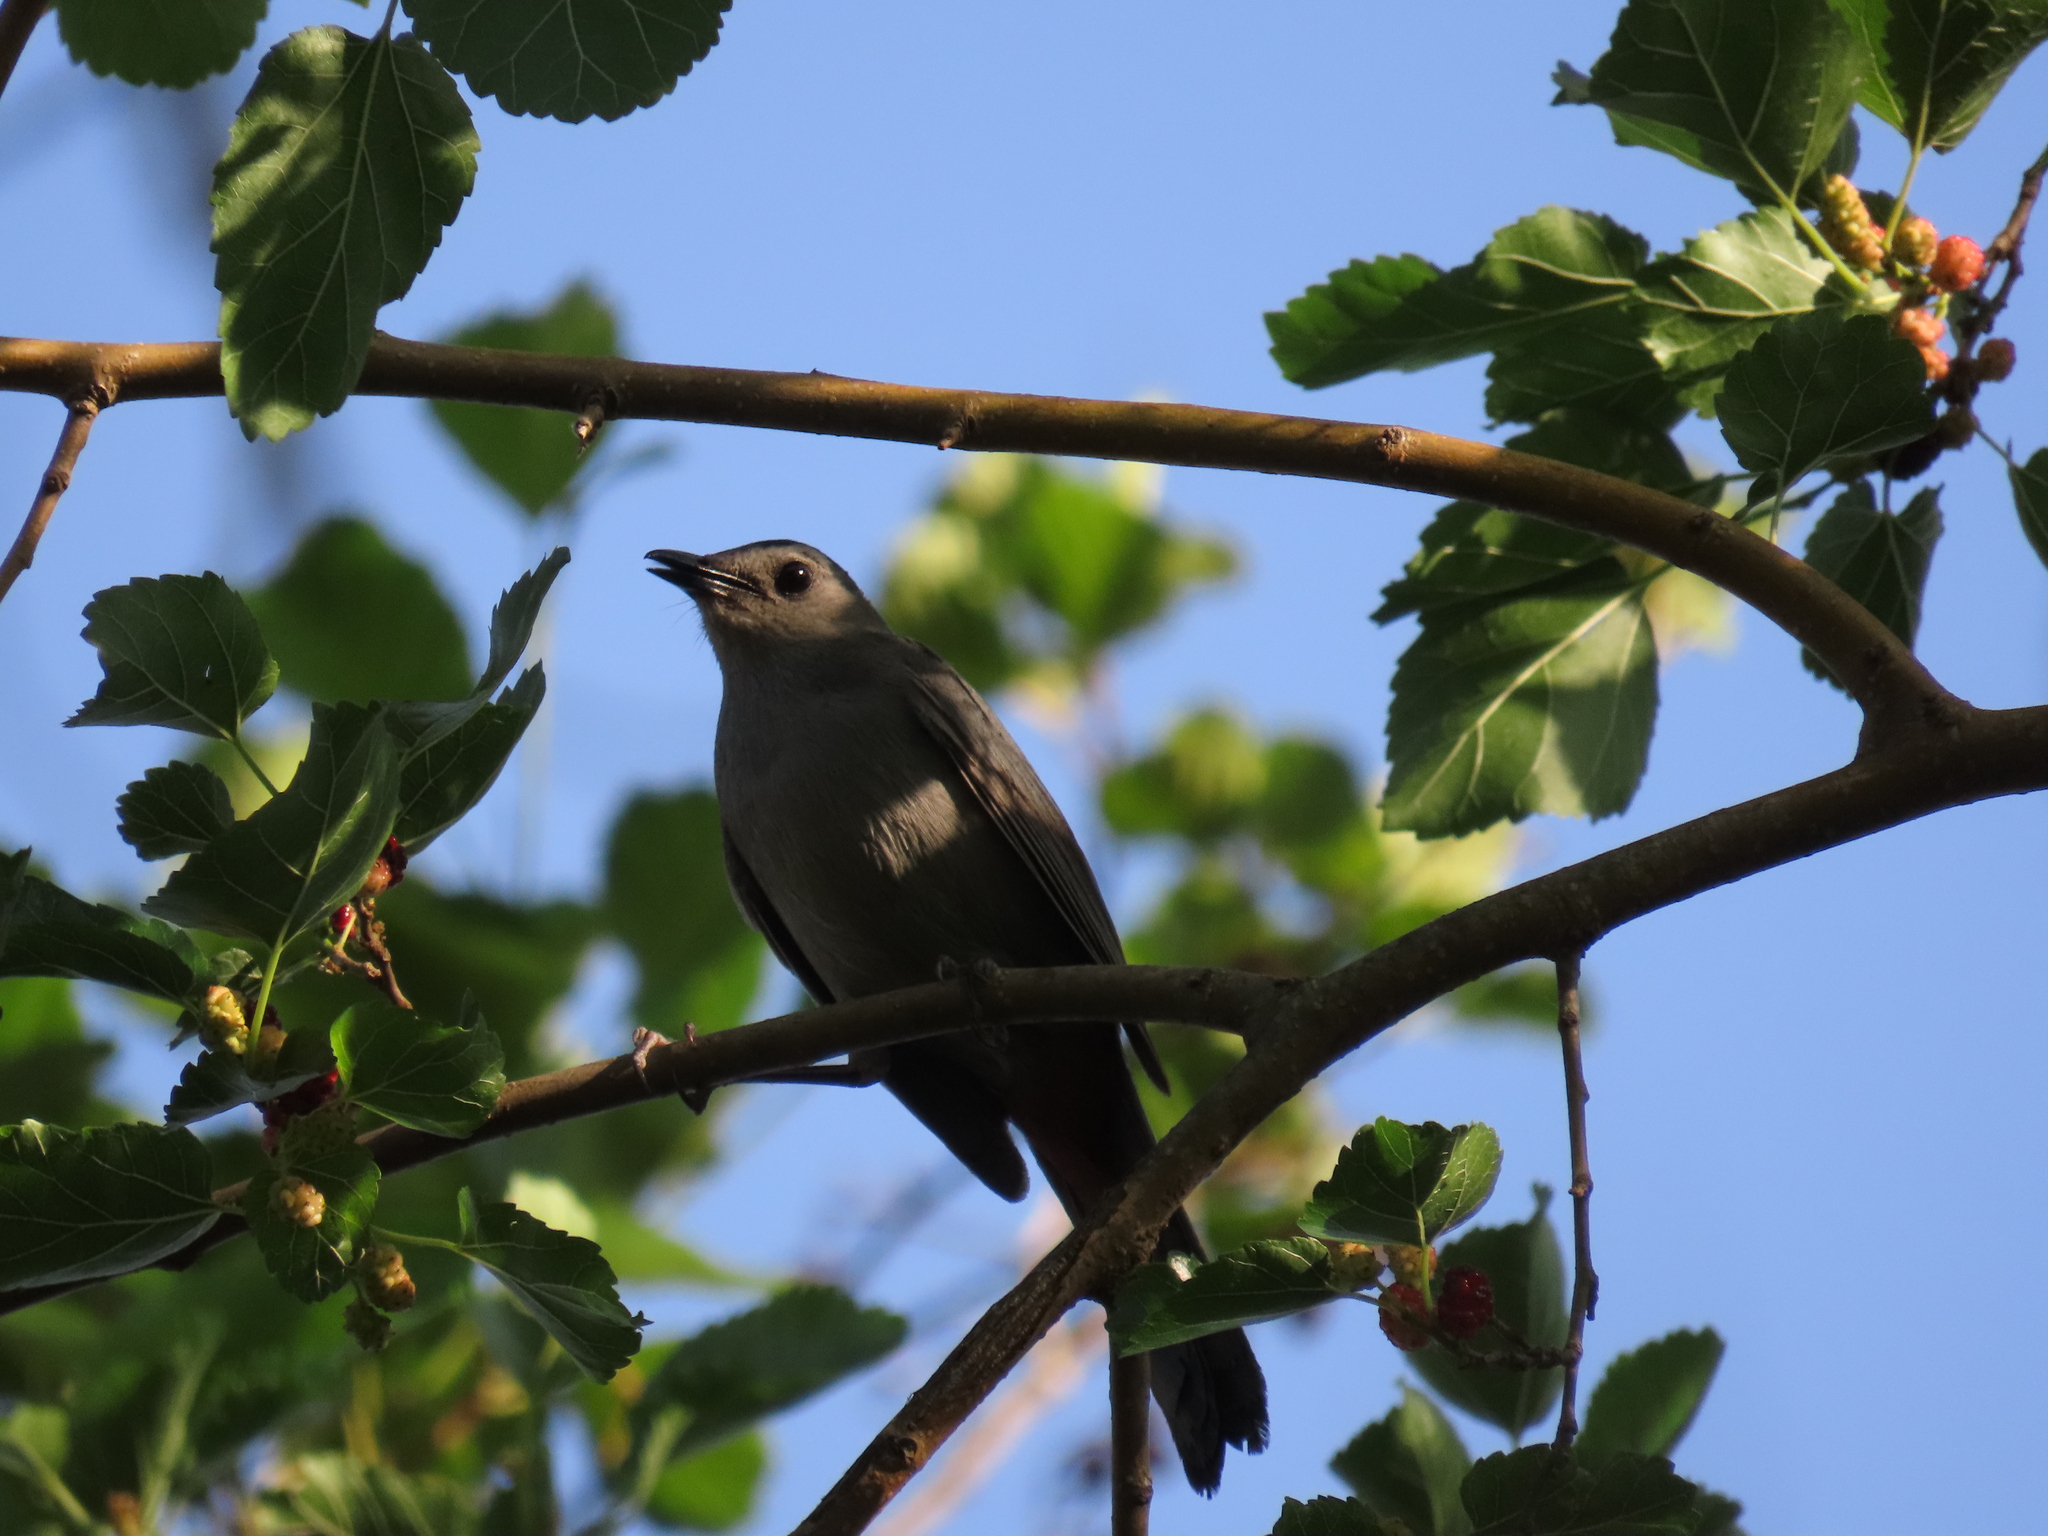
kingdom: Animalia
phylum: Chordata
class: Aves
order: Passeriformes
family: Mimidae
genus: Dumetella
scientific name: Dumetella carolinensis
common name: Gray catbird
